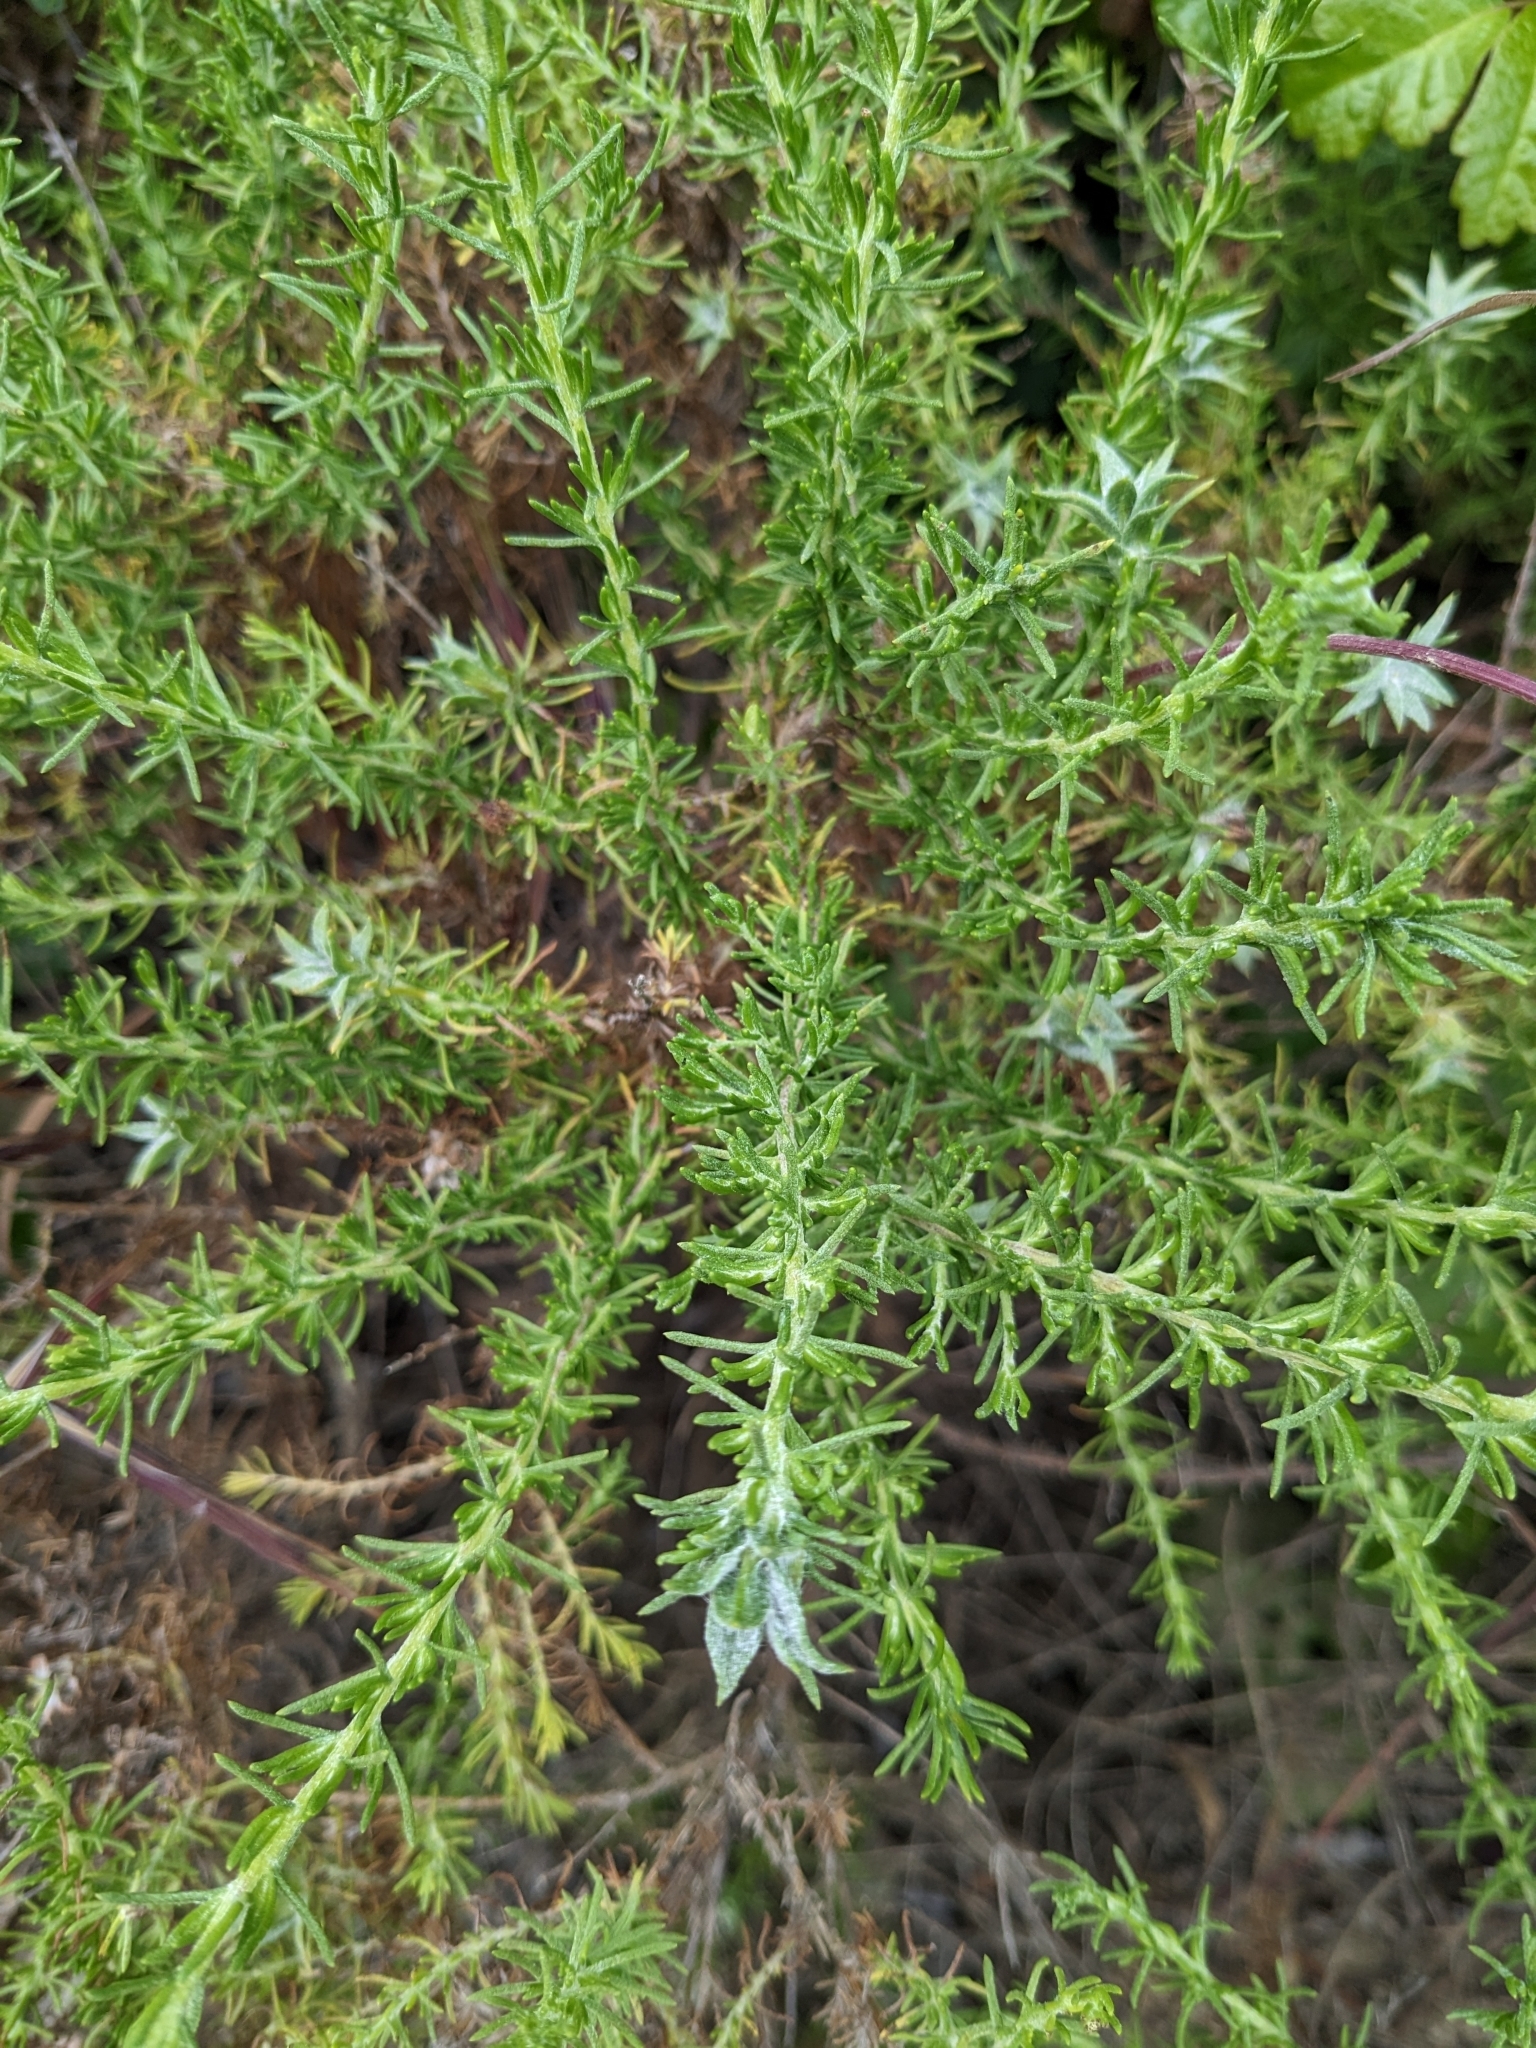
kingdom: Plantae
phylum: Tracheophyta
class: Magnoliopsida
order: Asterales
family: Asteraceae
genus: Ericameria
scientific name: Ericameria ericoides
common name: California goldenbush
